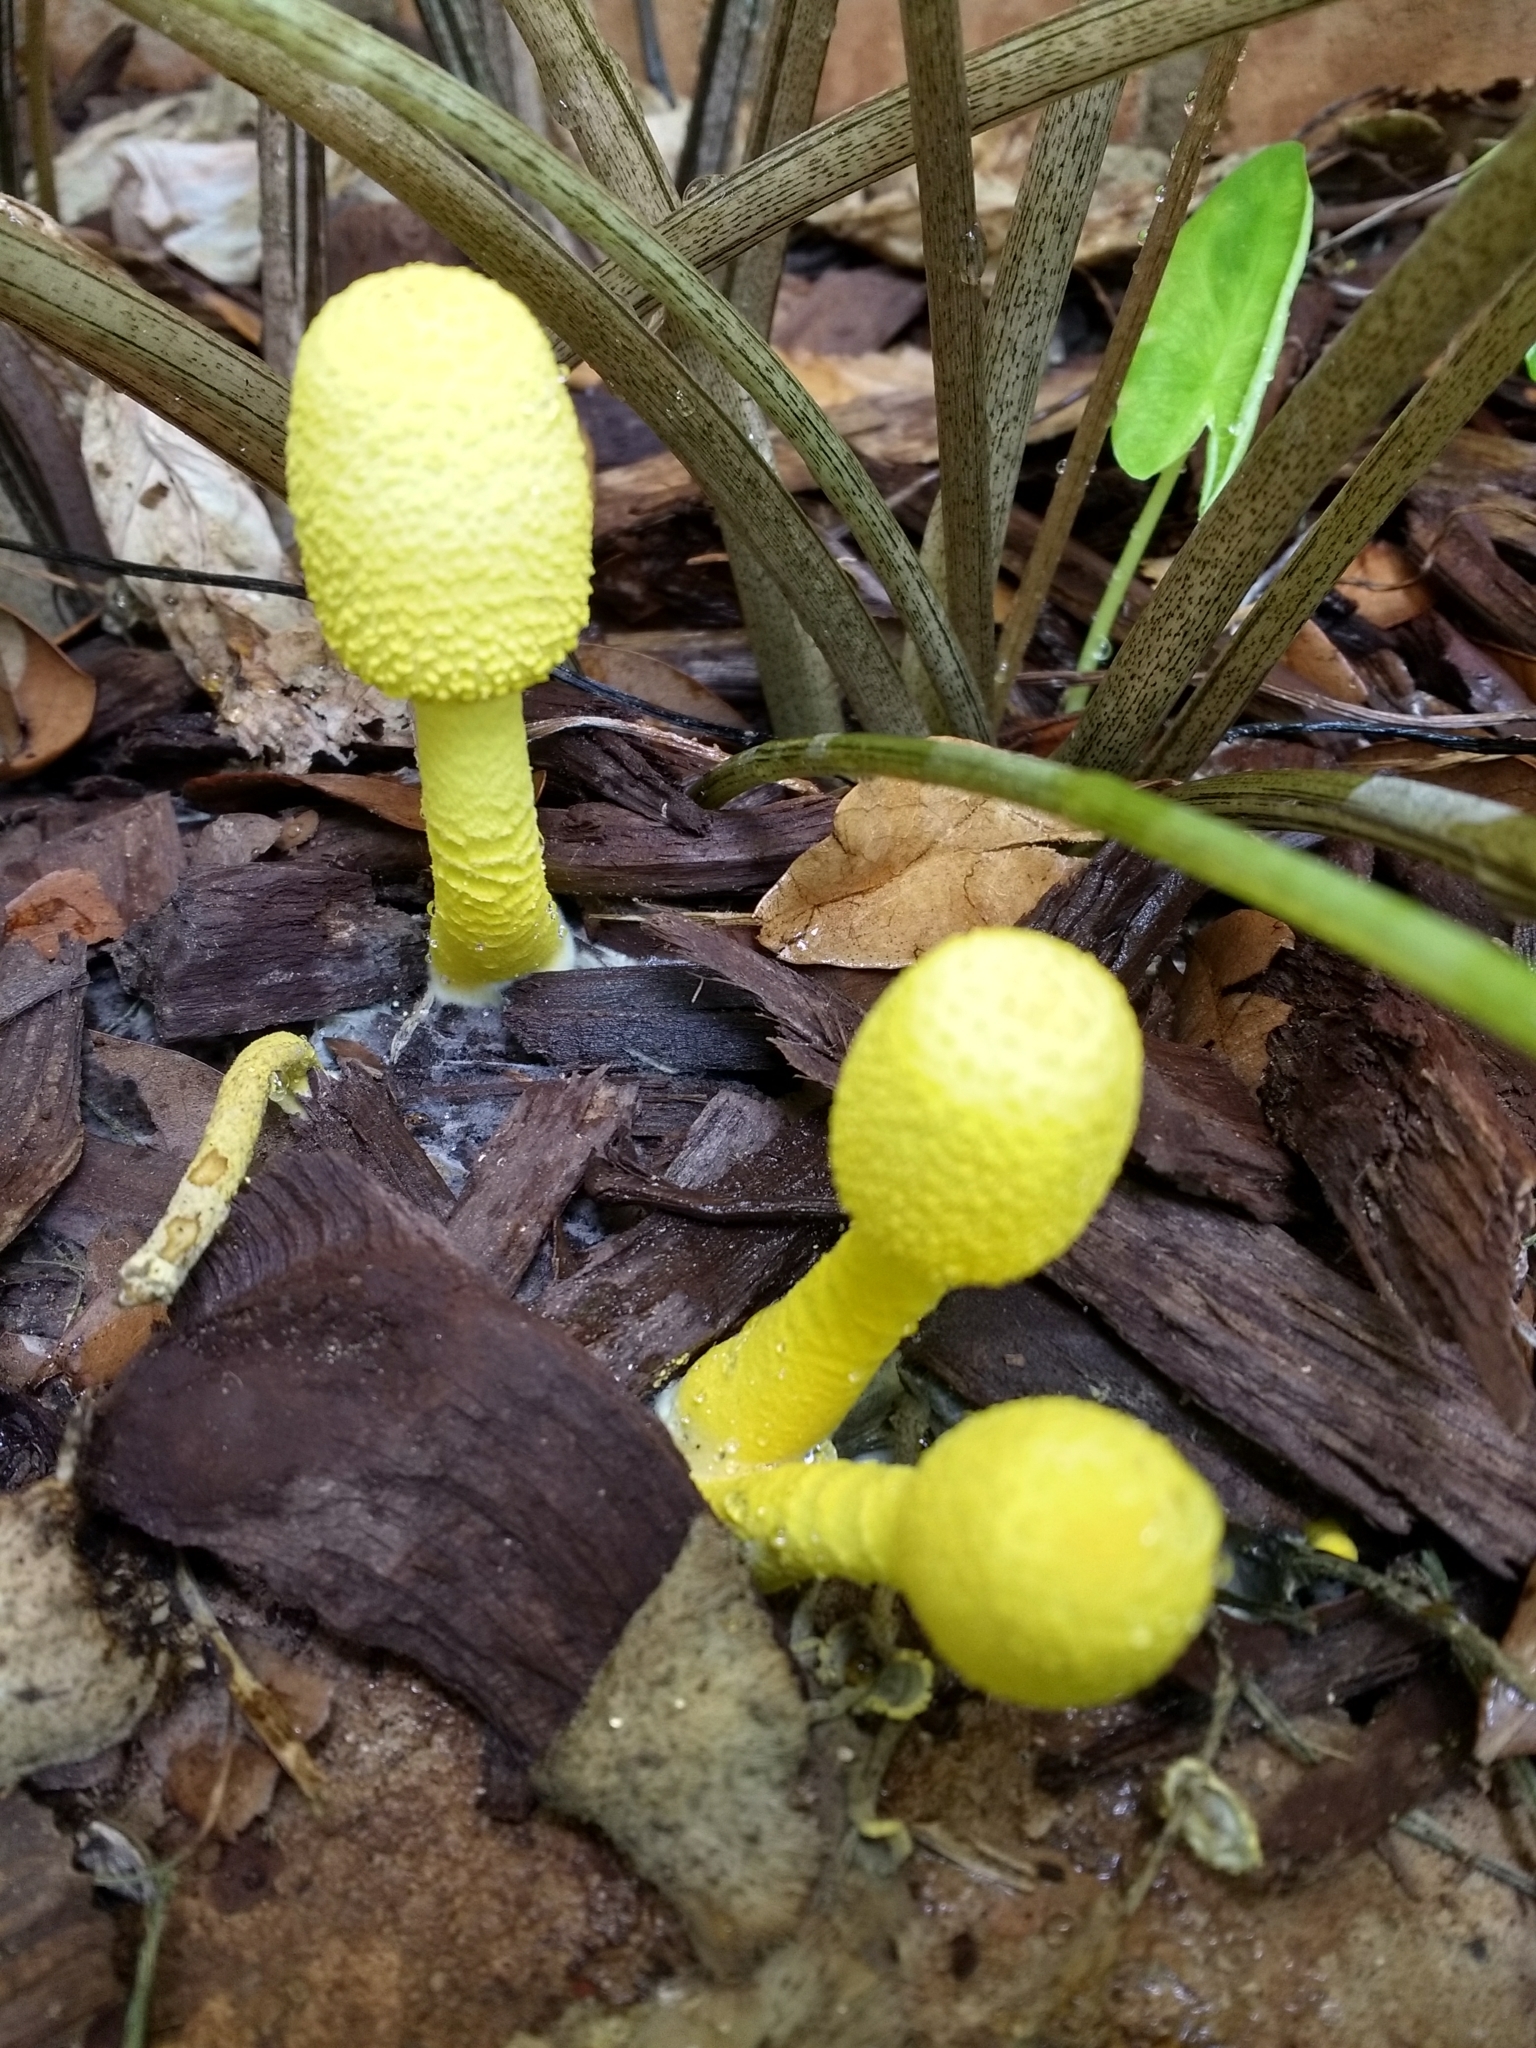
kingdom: Fungi
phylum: Basidiomycota
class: Agaricomycetes
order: Agaricales
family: Agaricaceae
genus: Leucocoprinus
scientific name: Leucocoprinus birnbaumii
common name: Plantpot dapperling
